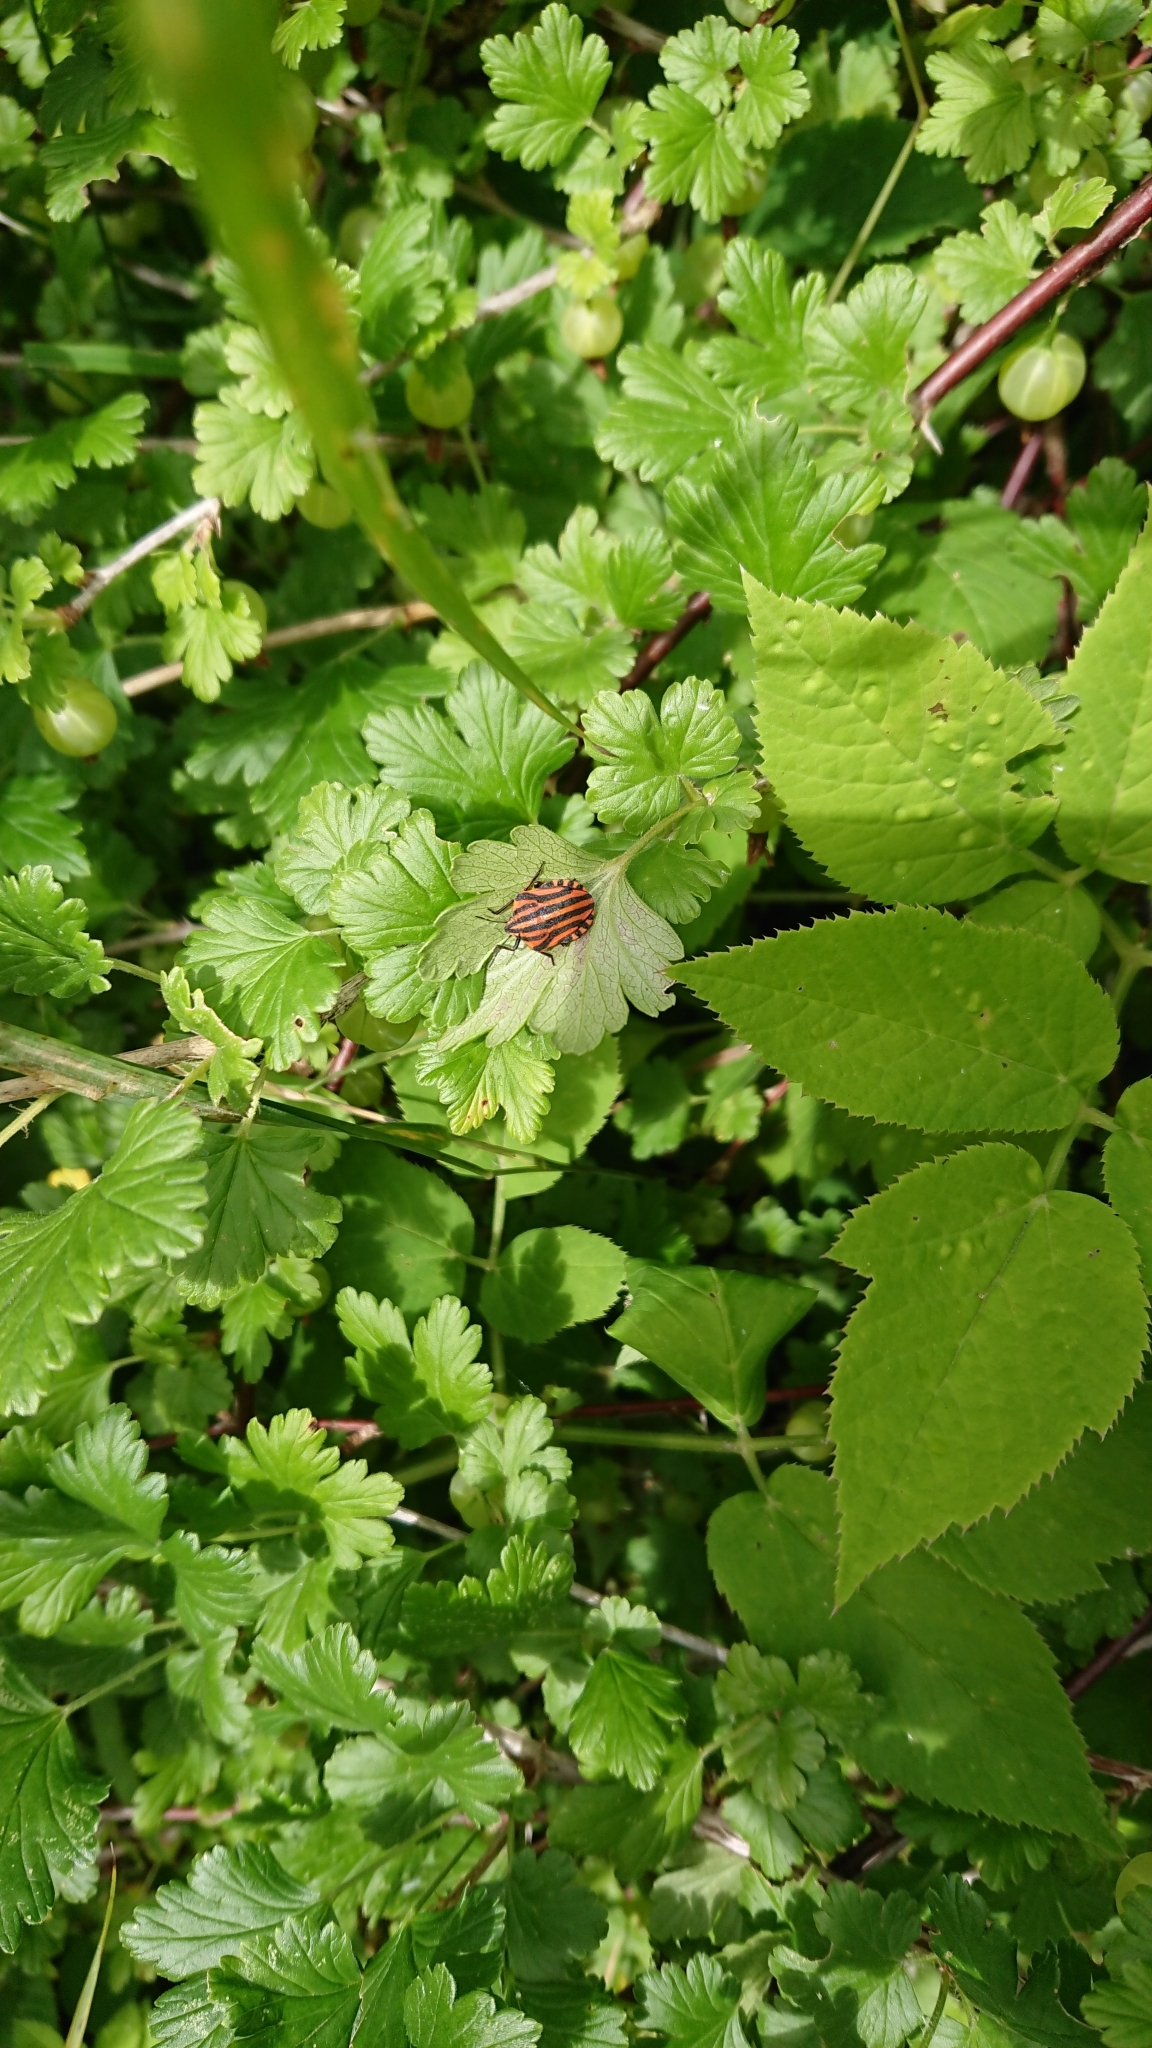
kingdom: Animalia
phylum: Arthropoda
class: Insecta
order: Hemiptera
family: Pentatomidae
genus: Graphosoma
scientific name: Graphosoma italicum
